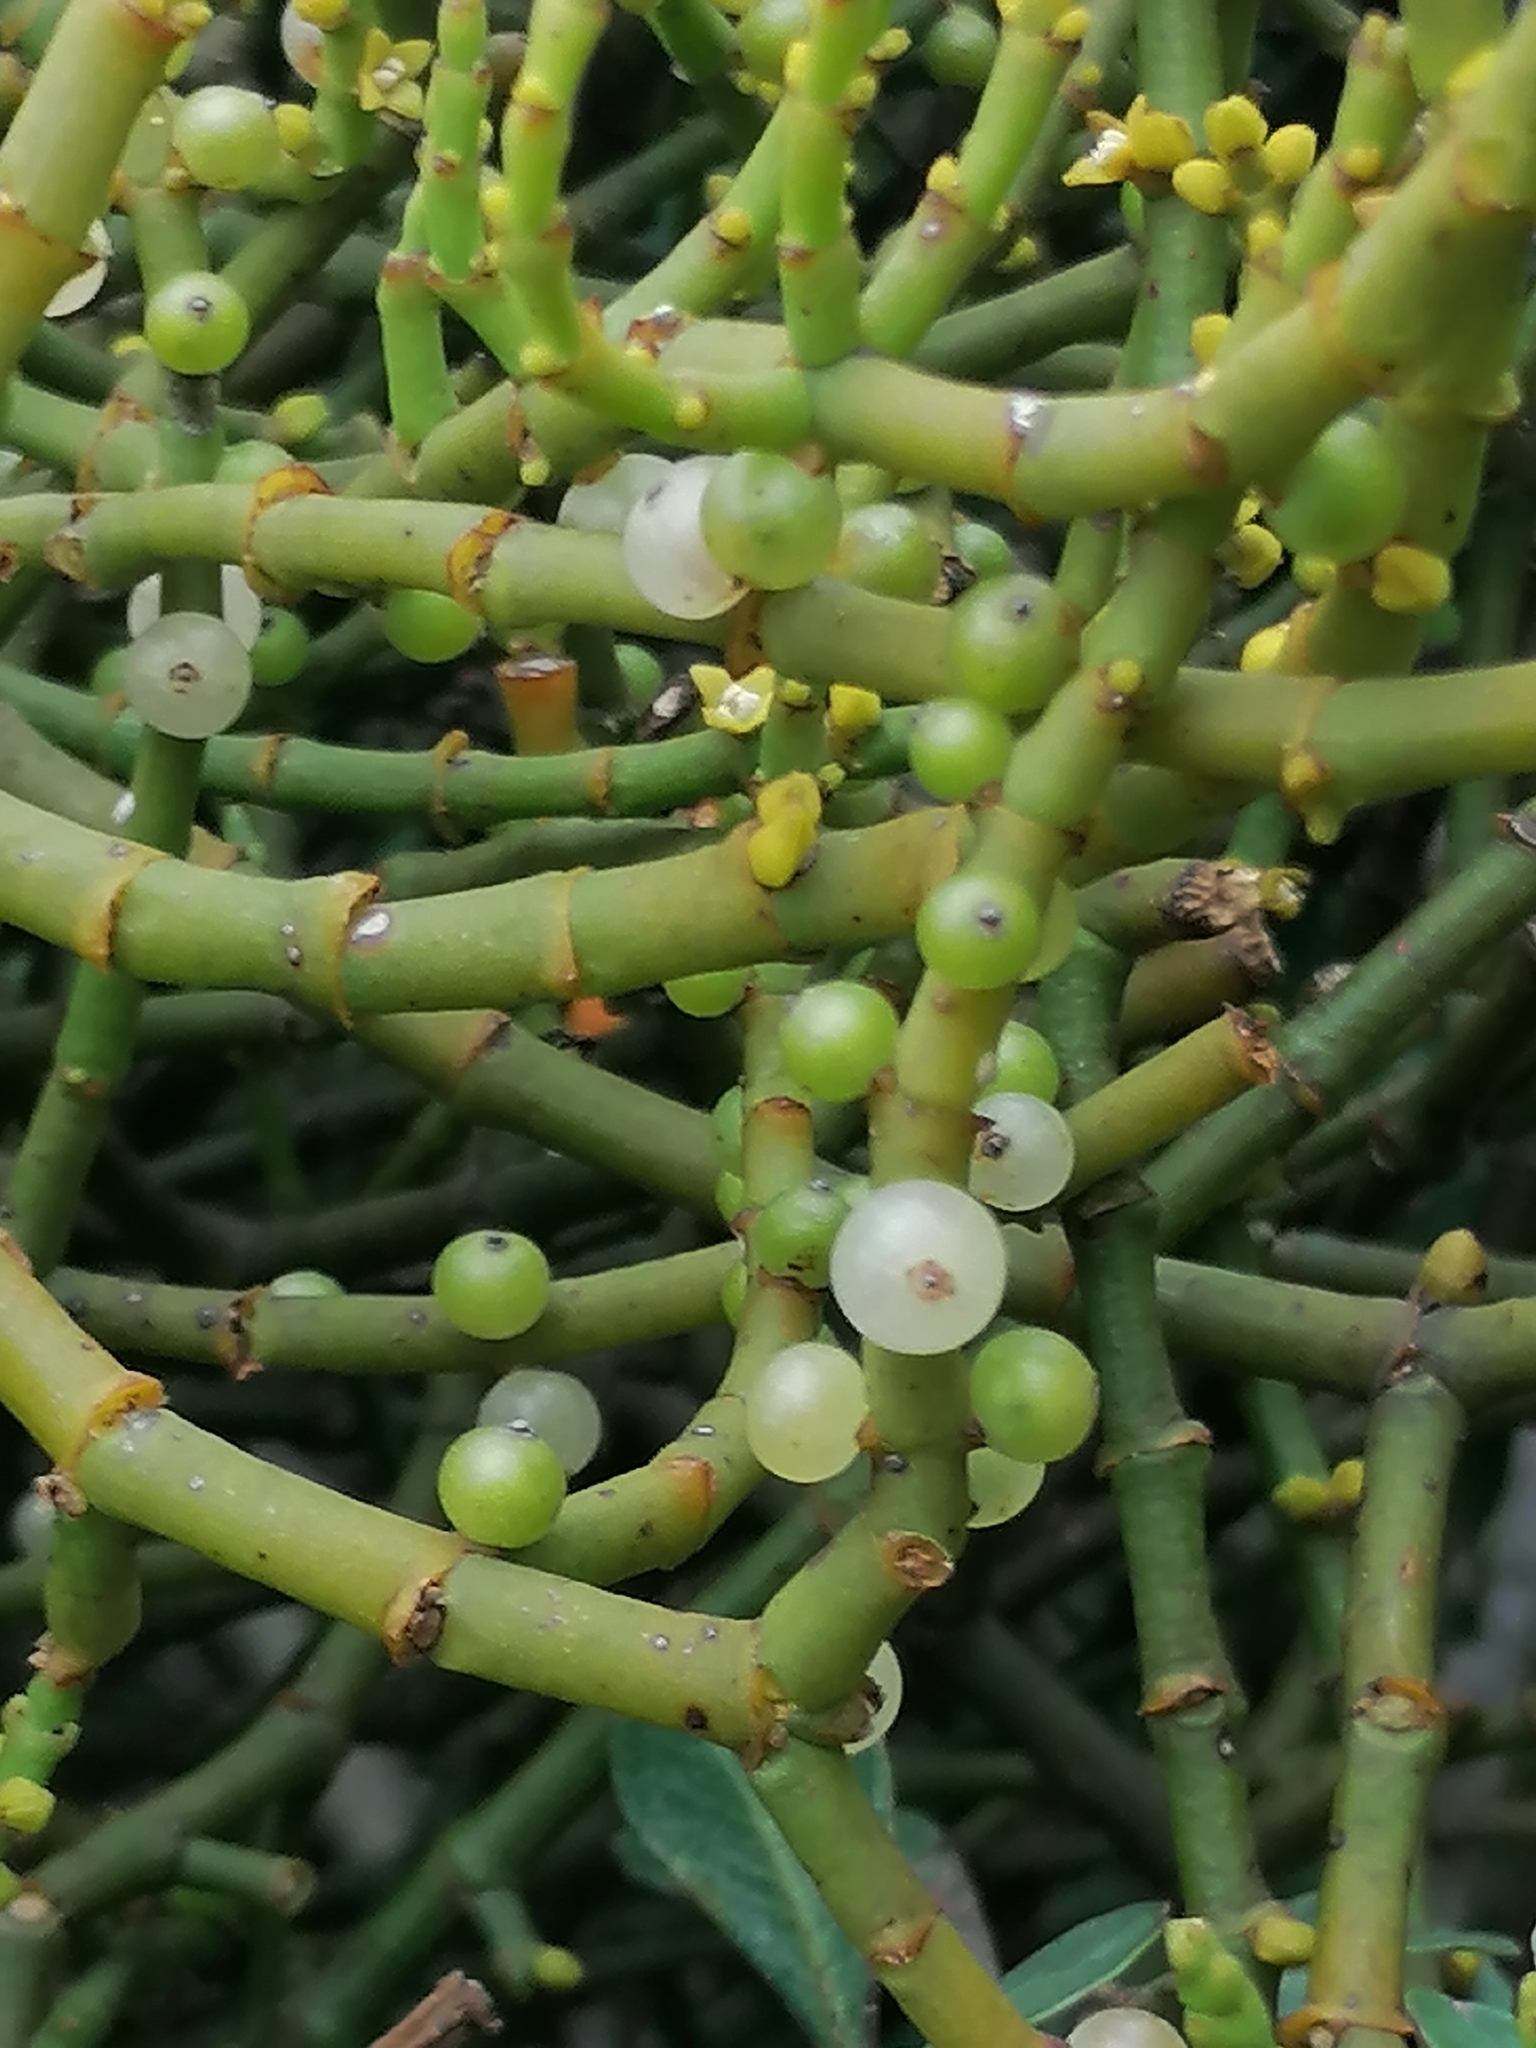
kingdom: Plantae
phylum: Tracheophyta
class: Magnoliopsida
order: Santalales
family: Viscaceae
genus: Viscum
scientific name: Viscum capense
